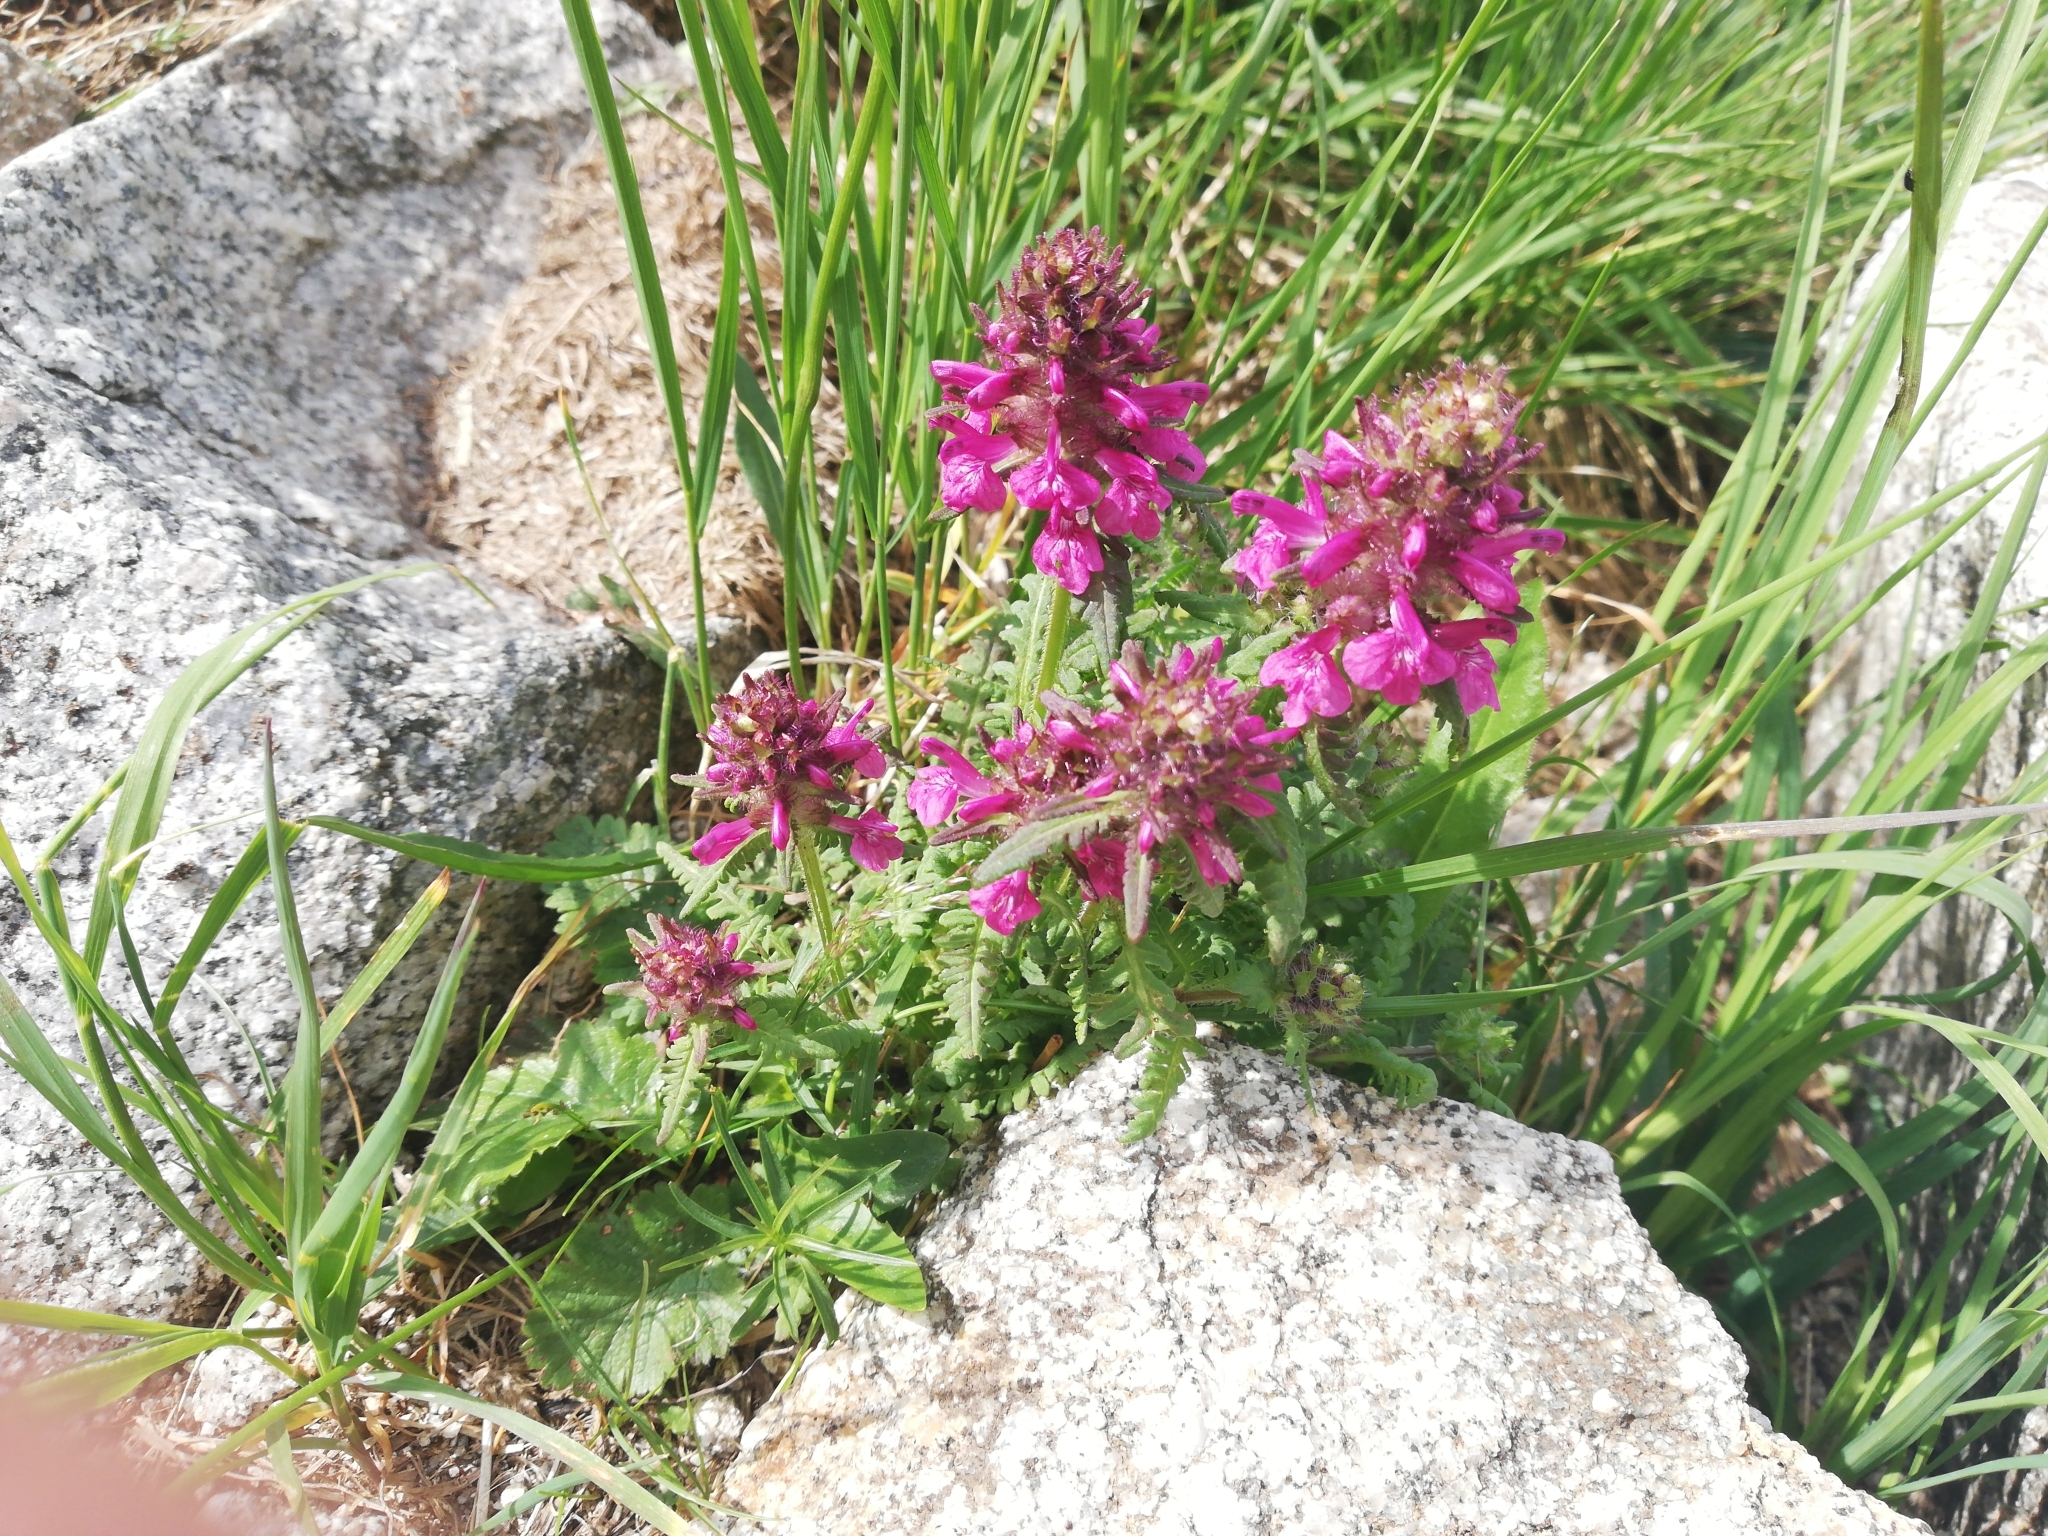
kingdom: Plantae
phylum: Tracheophyta
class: Magnoliopsida
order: Lamiales
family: Orobanchaceae
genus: Pedicularis
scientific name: Pedicularis verticillata
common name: Whorled lousewort
